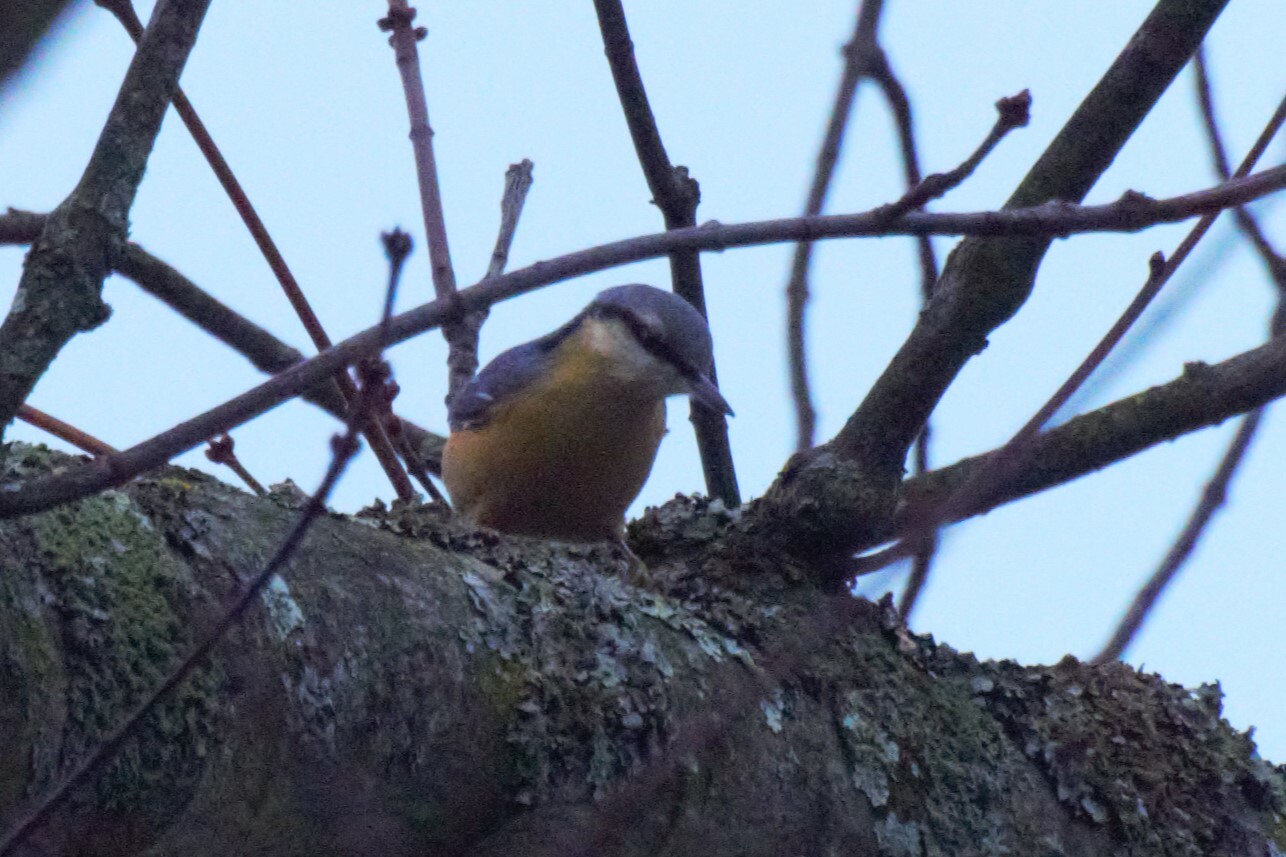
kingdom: Animalia
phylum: Chordata
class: Aves
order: Passeriformes
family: Sittidae
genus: Sitta
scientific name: Sitta europaea
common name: Eurasian nuthatch
